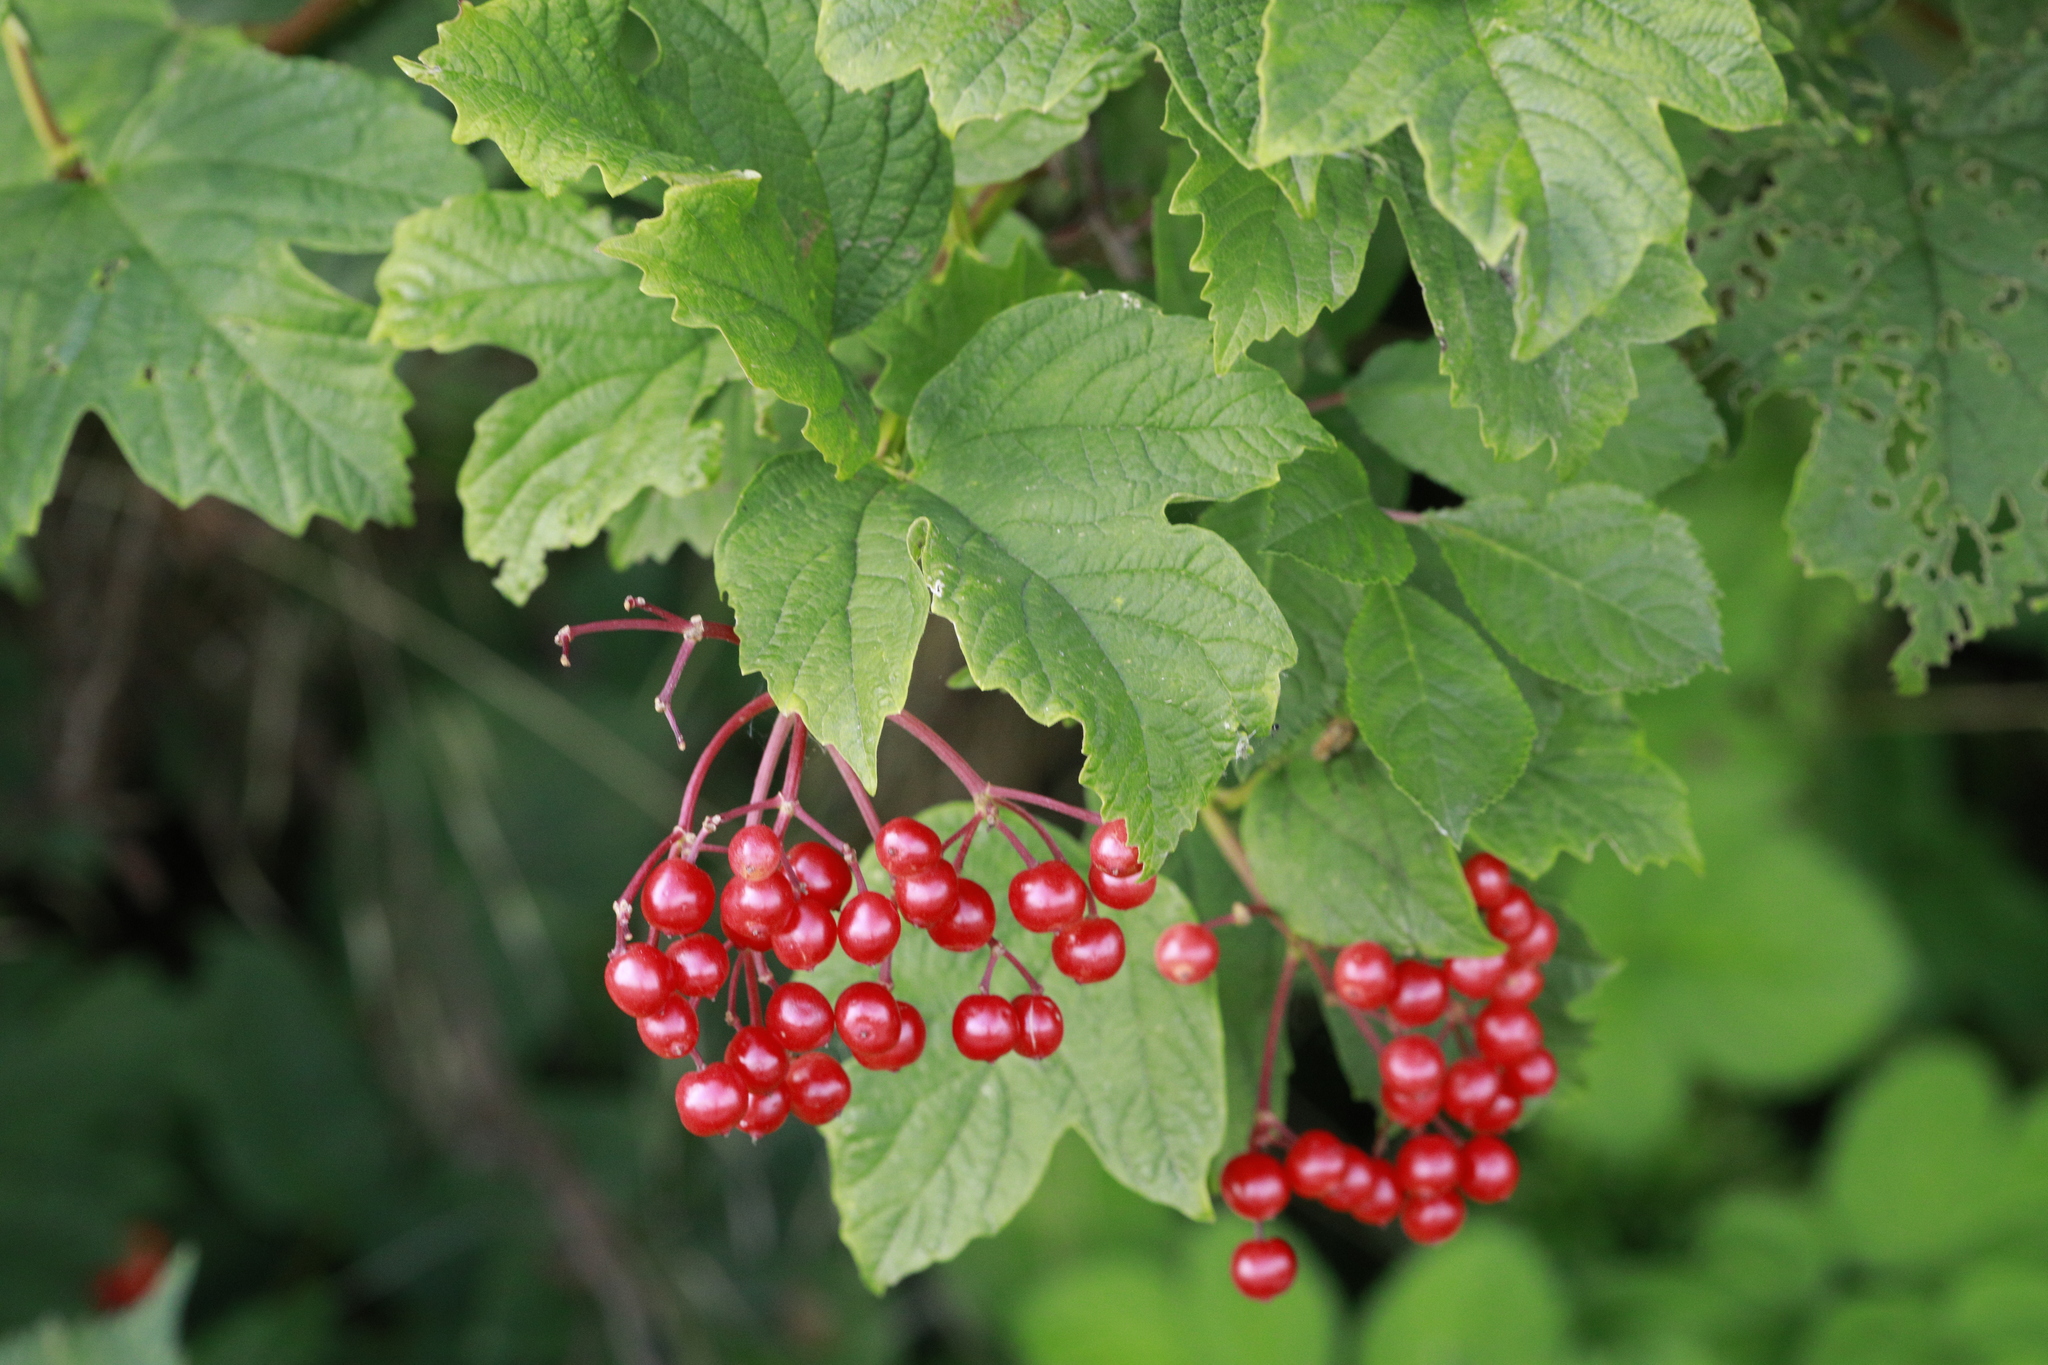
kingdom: Plantae
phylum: Tracheophyta
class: Magnoliopsida
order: Dipsacales
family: Viburnaceae
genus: Viburnum
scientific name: Viburnum opulus
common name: Guelder-rose
